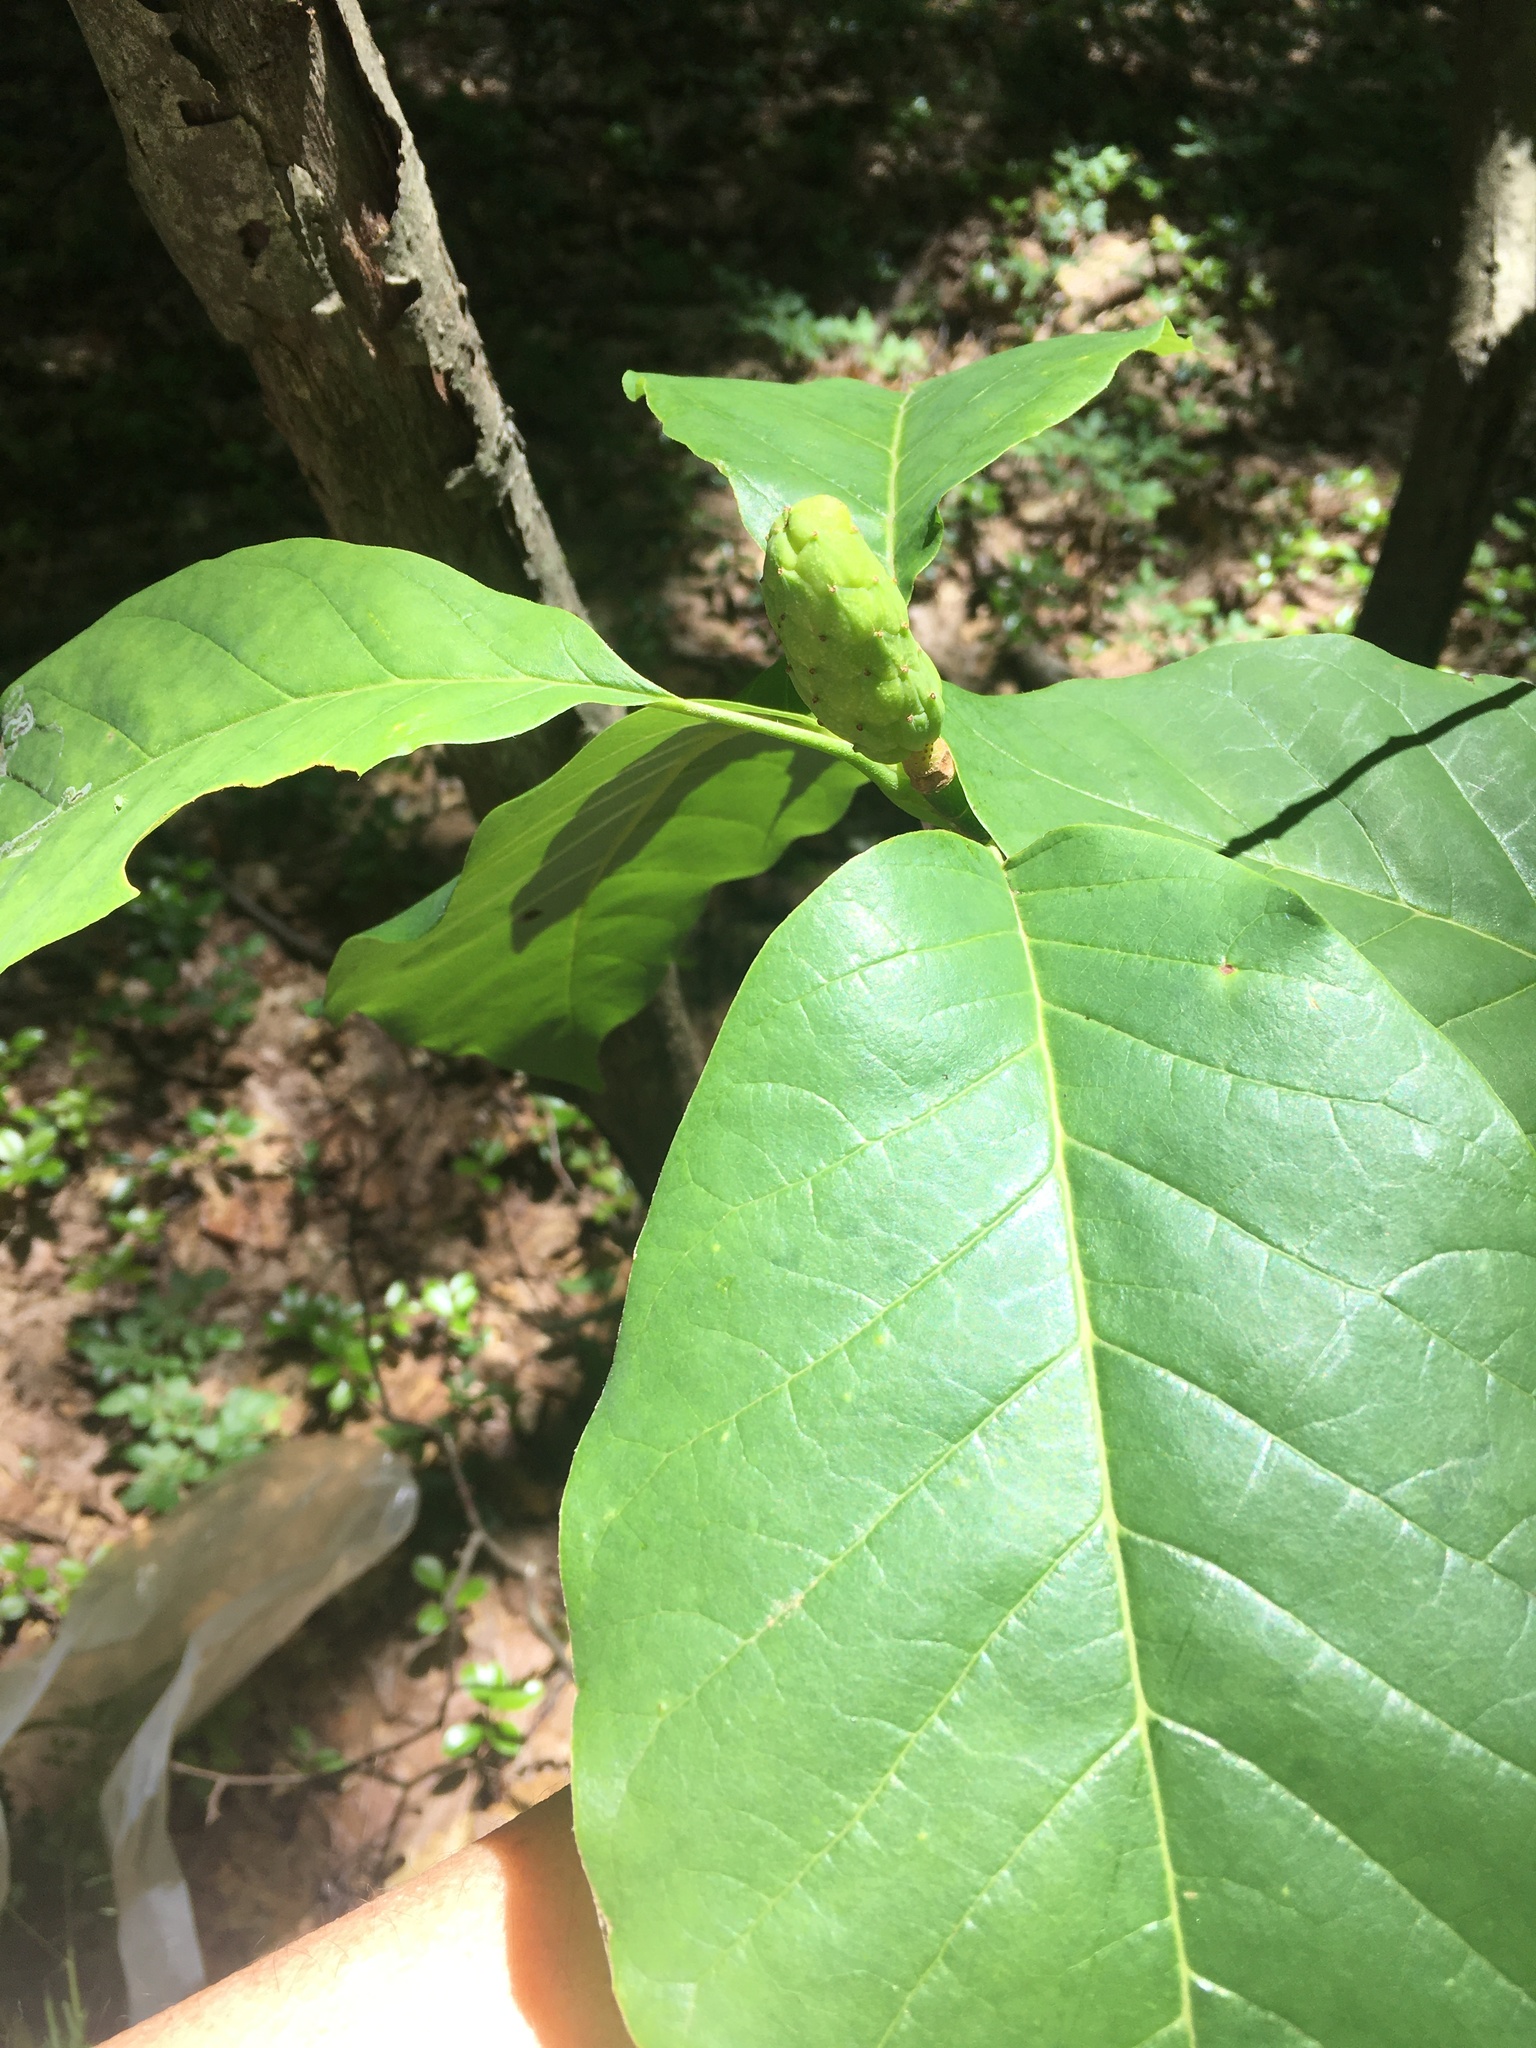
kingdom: Plantae
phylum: Tracheophyta
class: Magnoliopsida
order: Magnoliales
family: Magnoliaceae
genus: Magnolia
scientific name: Magnolia acuminata
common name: Cucumber magnolia
